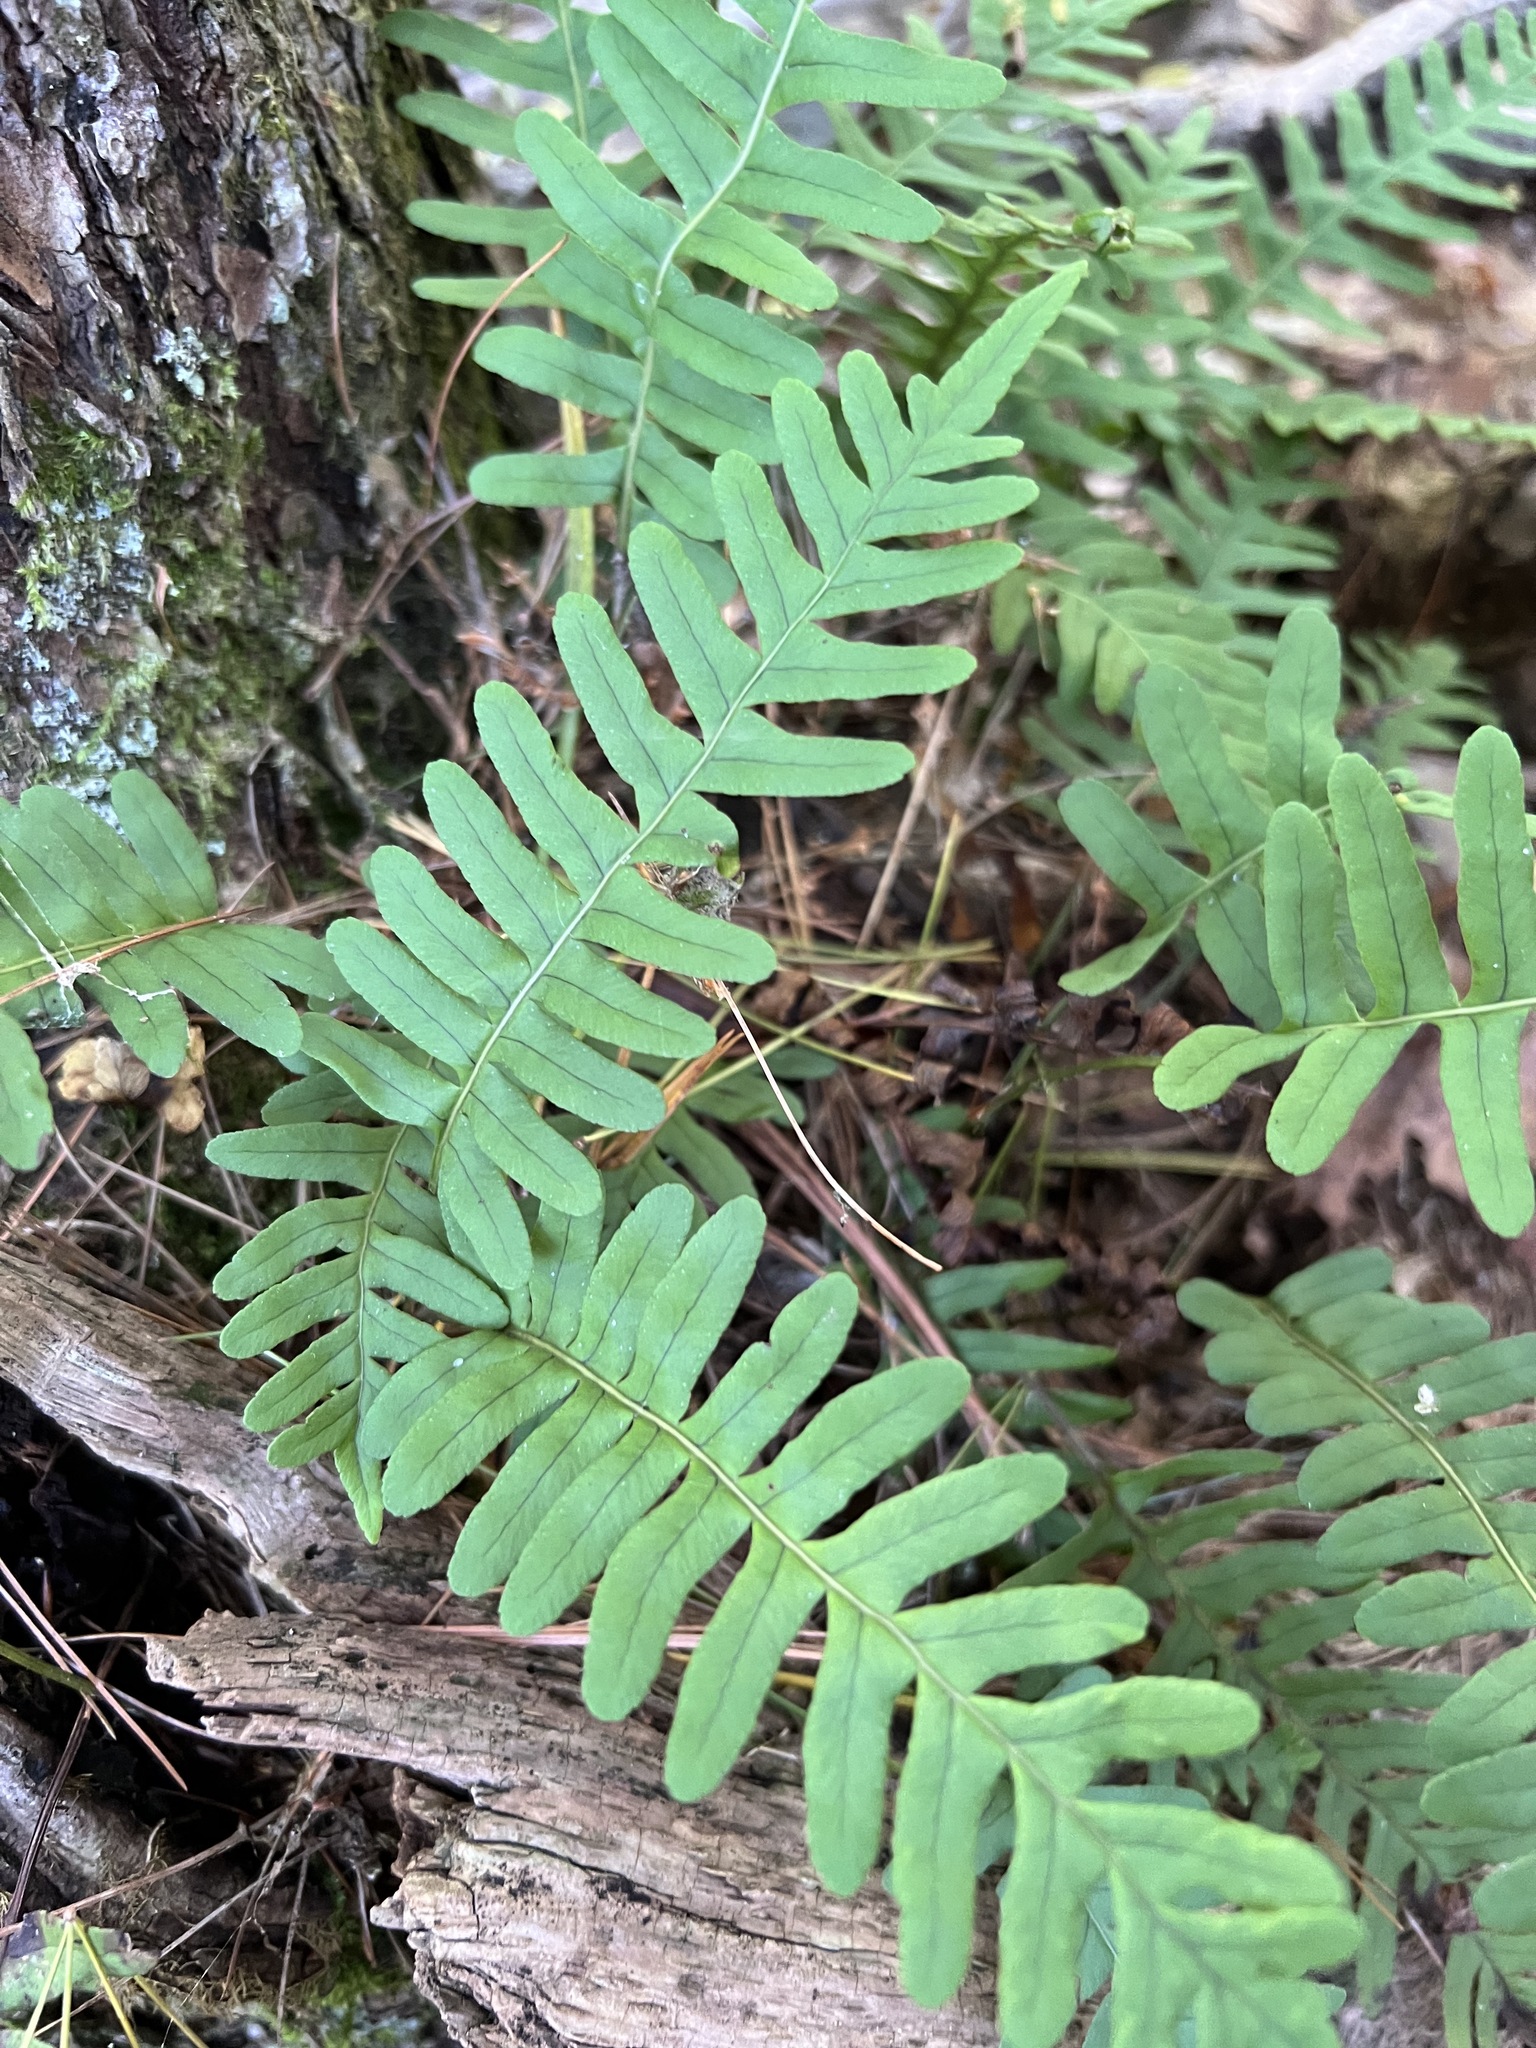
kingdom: Plantae
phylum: Tracheophyta
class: Polypodiopsida
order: Polypodiales
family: Polypodiaceae
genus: Polypodium
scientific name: Polypodium virginianum
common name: American wall fern
